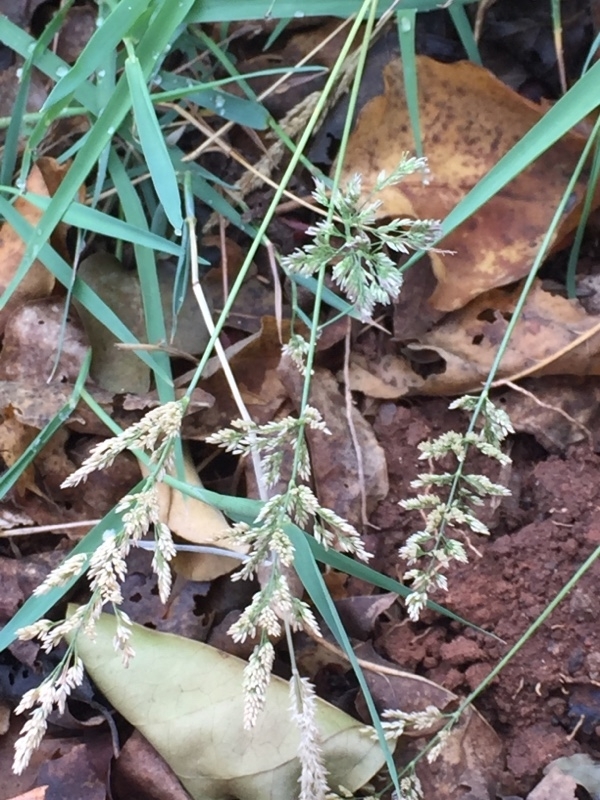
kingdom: Plantae
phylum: Tracheophyta
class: Liliopsida
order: Poales
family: Poaceae
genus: Polypogon
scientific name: Polypogon viridis
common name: Water bent
